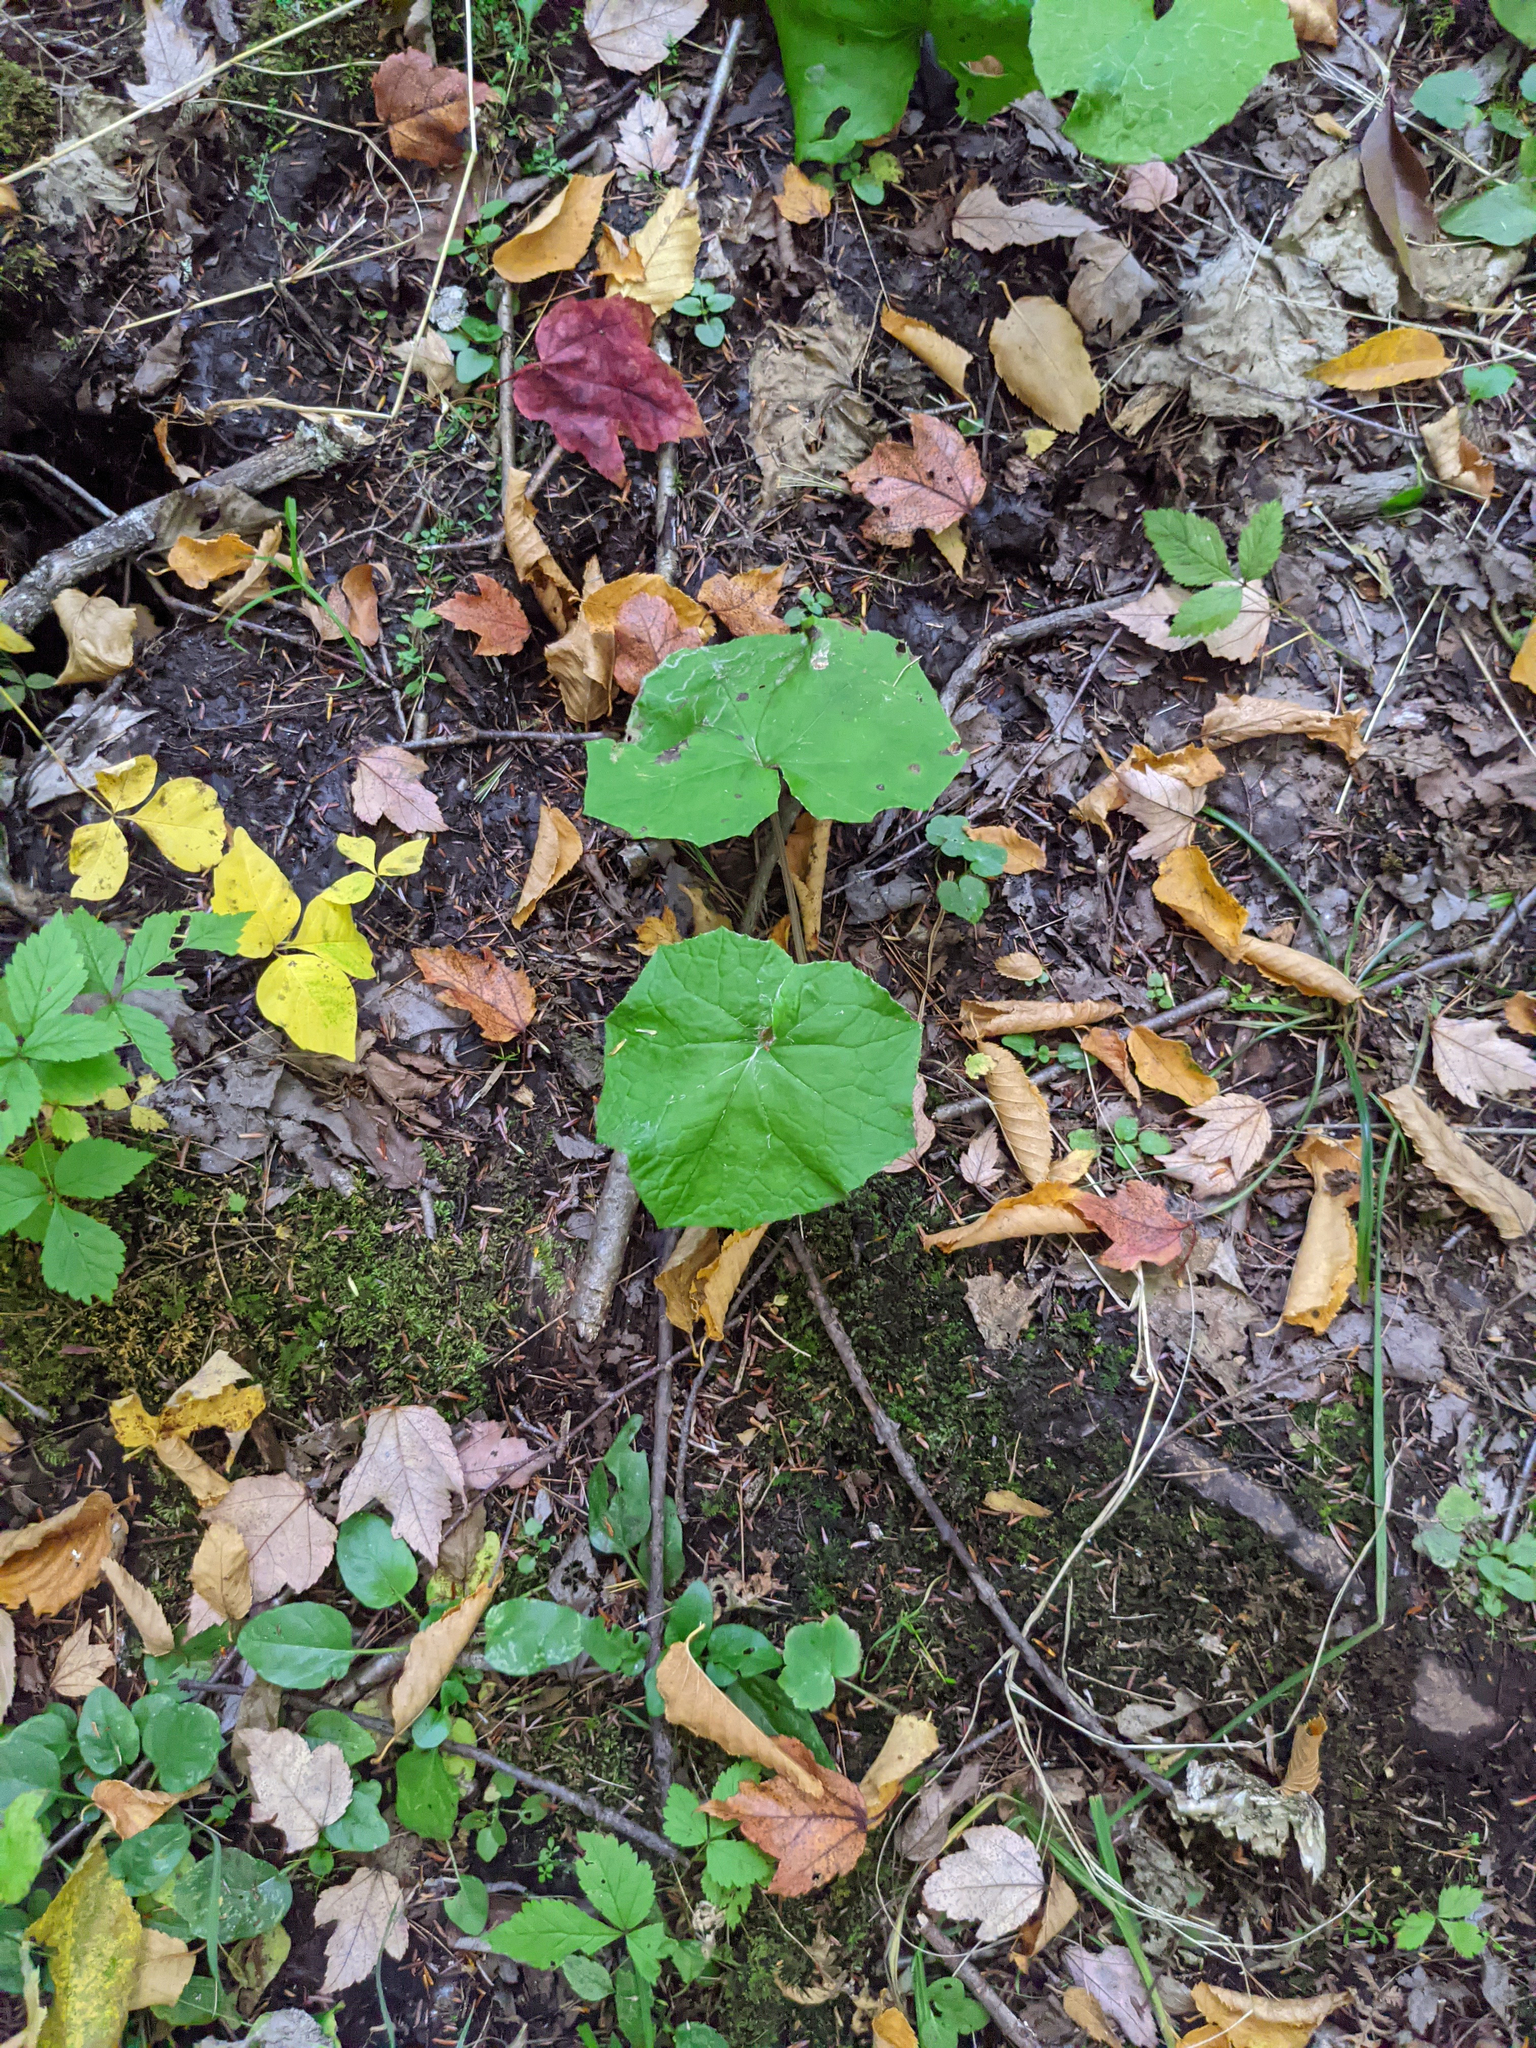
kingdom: Plantae
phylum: Tracheophyta
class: Magnoliopsida
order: Asterales
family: Asteraceae
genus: Tussilago
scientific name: Tussilago farfara
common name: Coltsfoot
